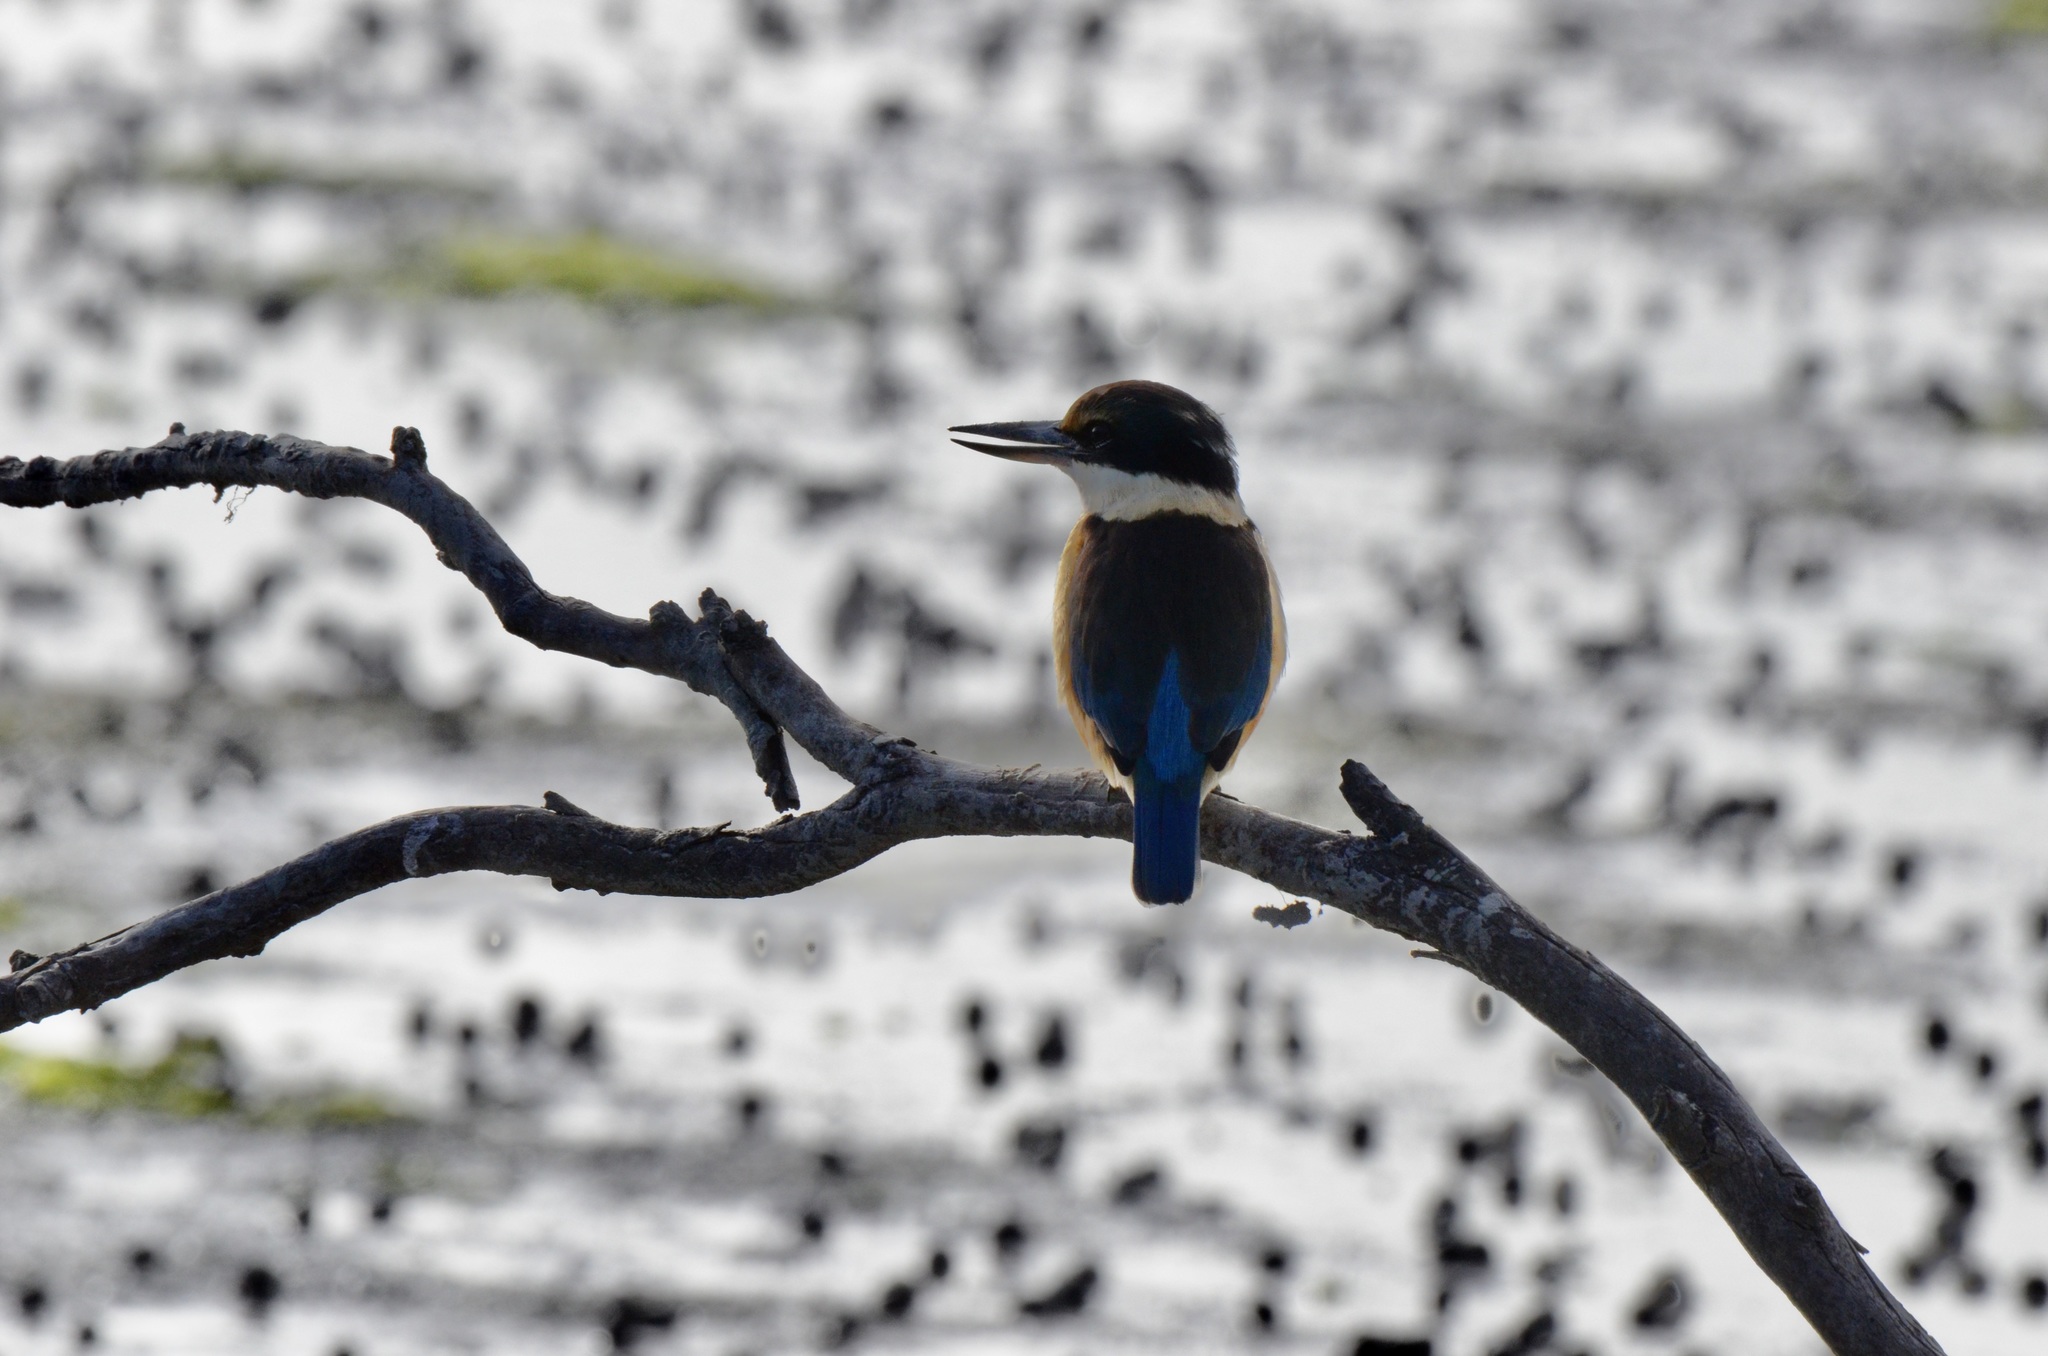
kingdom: Animalia
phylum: Chordata
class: Aves
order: Coraciiformes
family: Alcedinidae
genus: Todiramphus
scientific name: Todiramphus sanctus
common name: Sacred kingfisher
